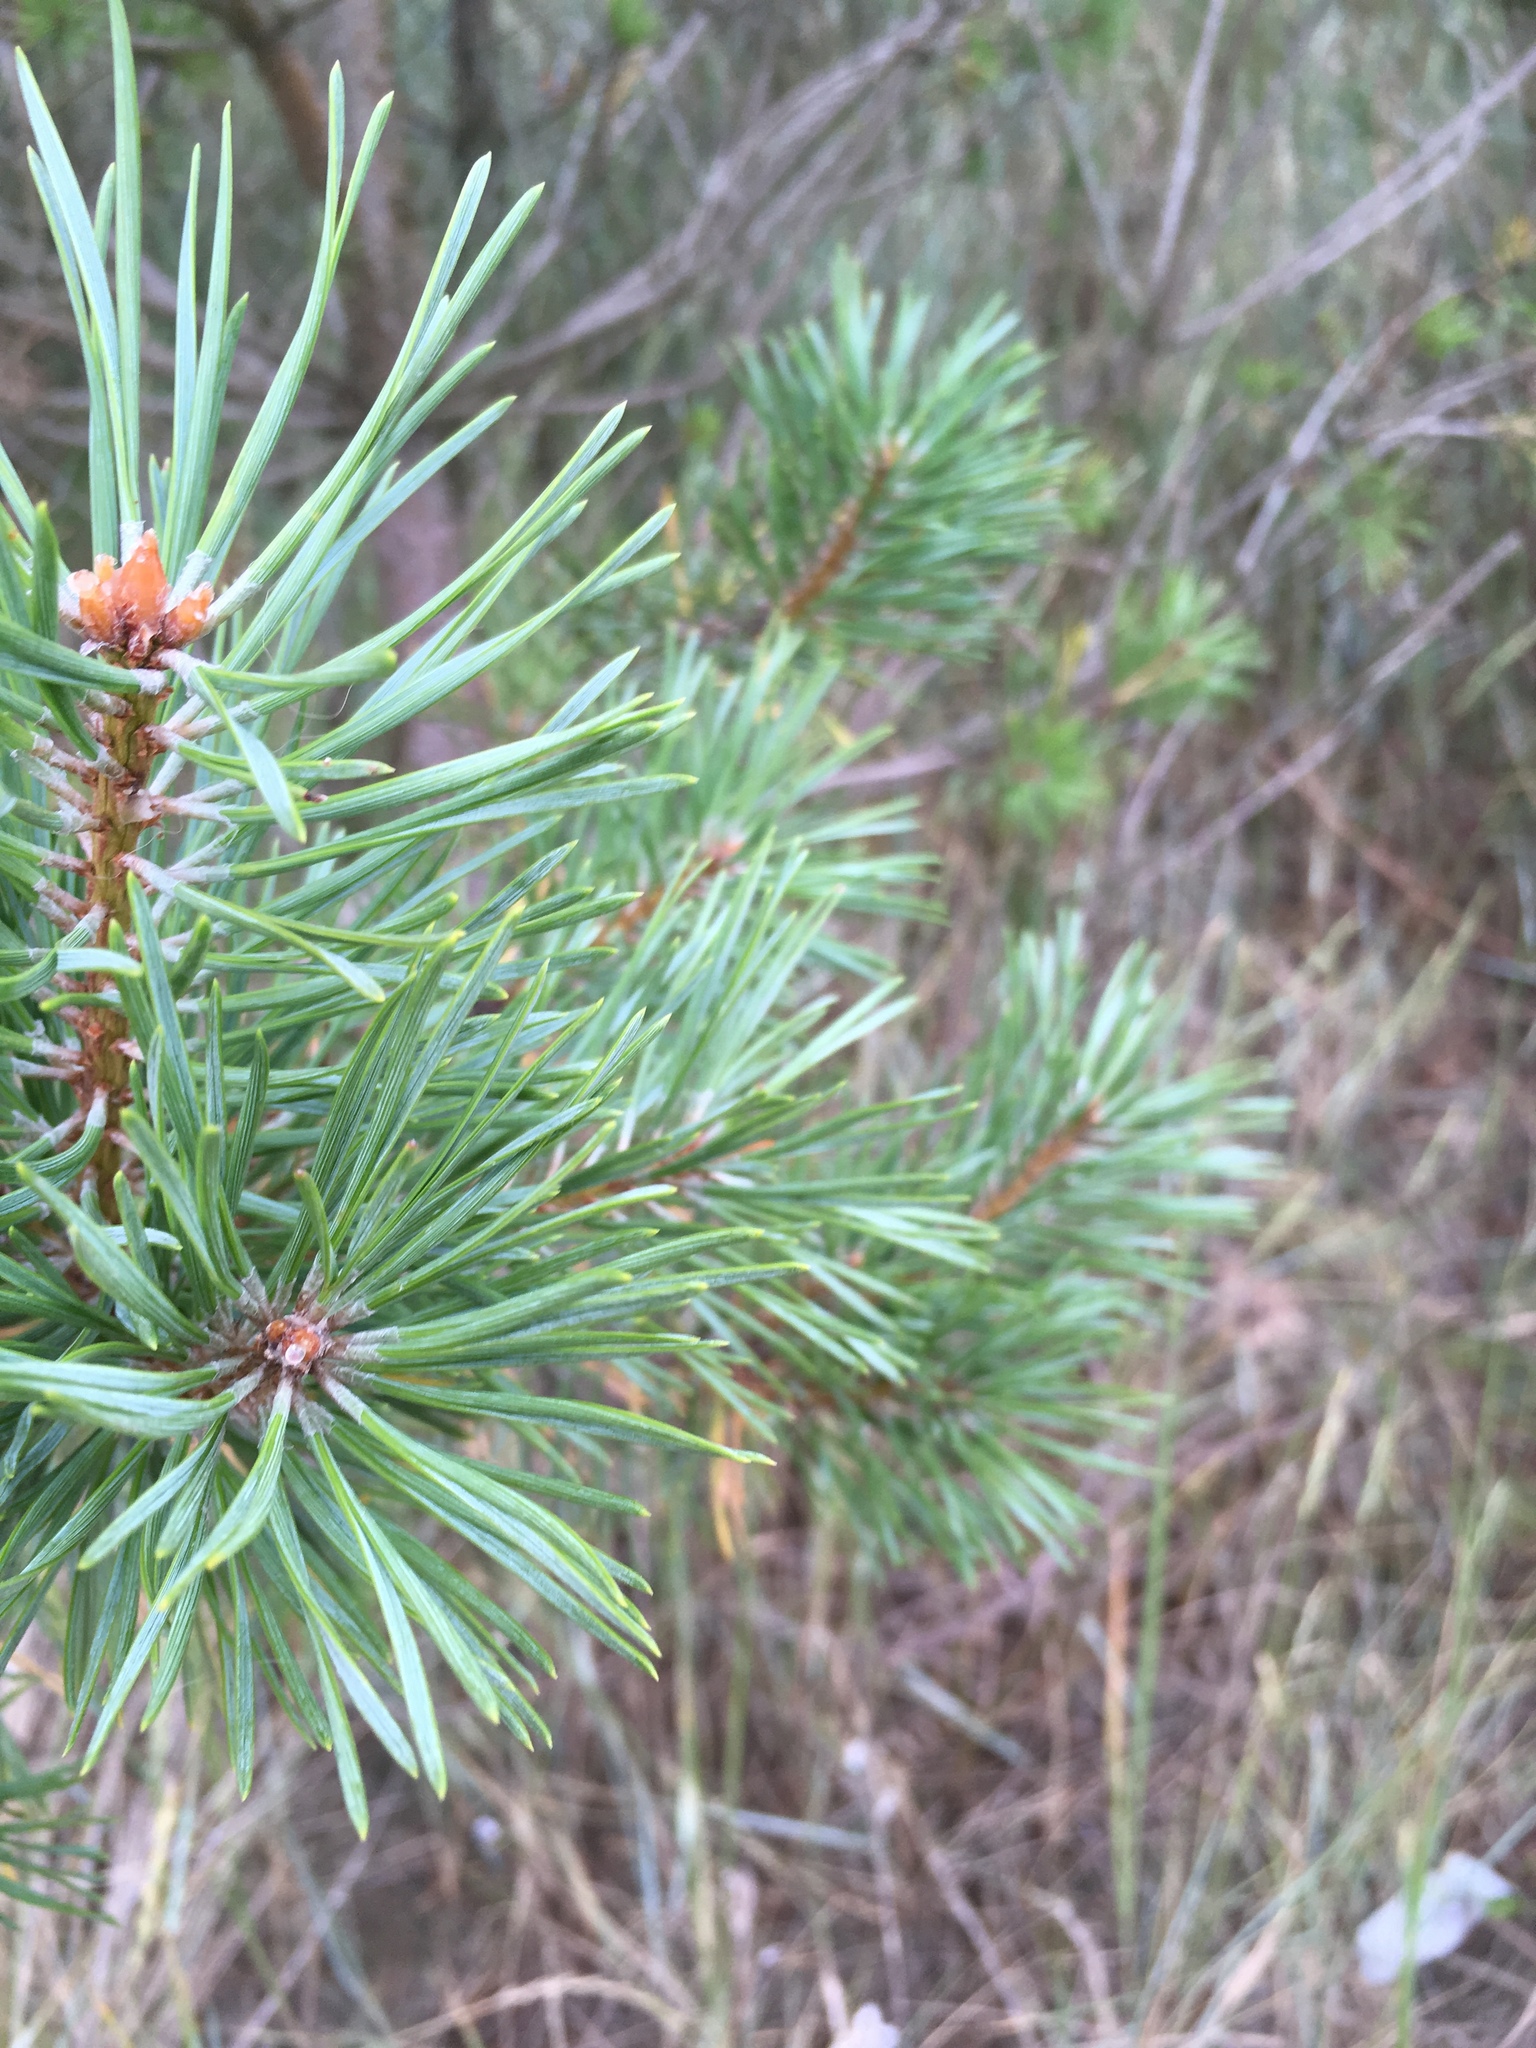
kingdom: Plantae
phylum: Tracheophyta
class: Pinopsida
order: Pinales
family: Pinaceae
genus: Pinus
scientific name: Pinus sylvestris
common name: Scots pine
